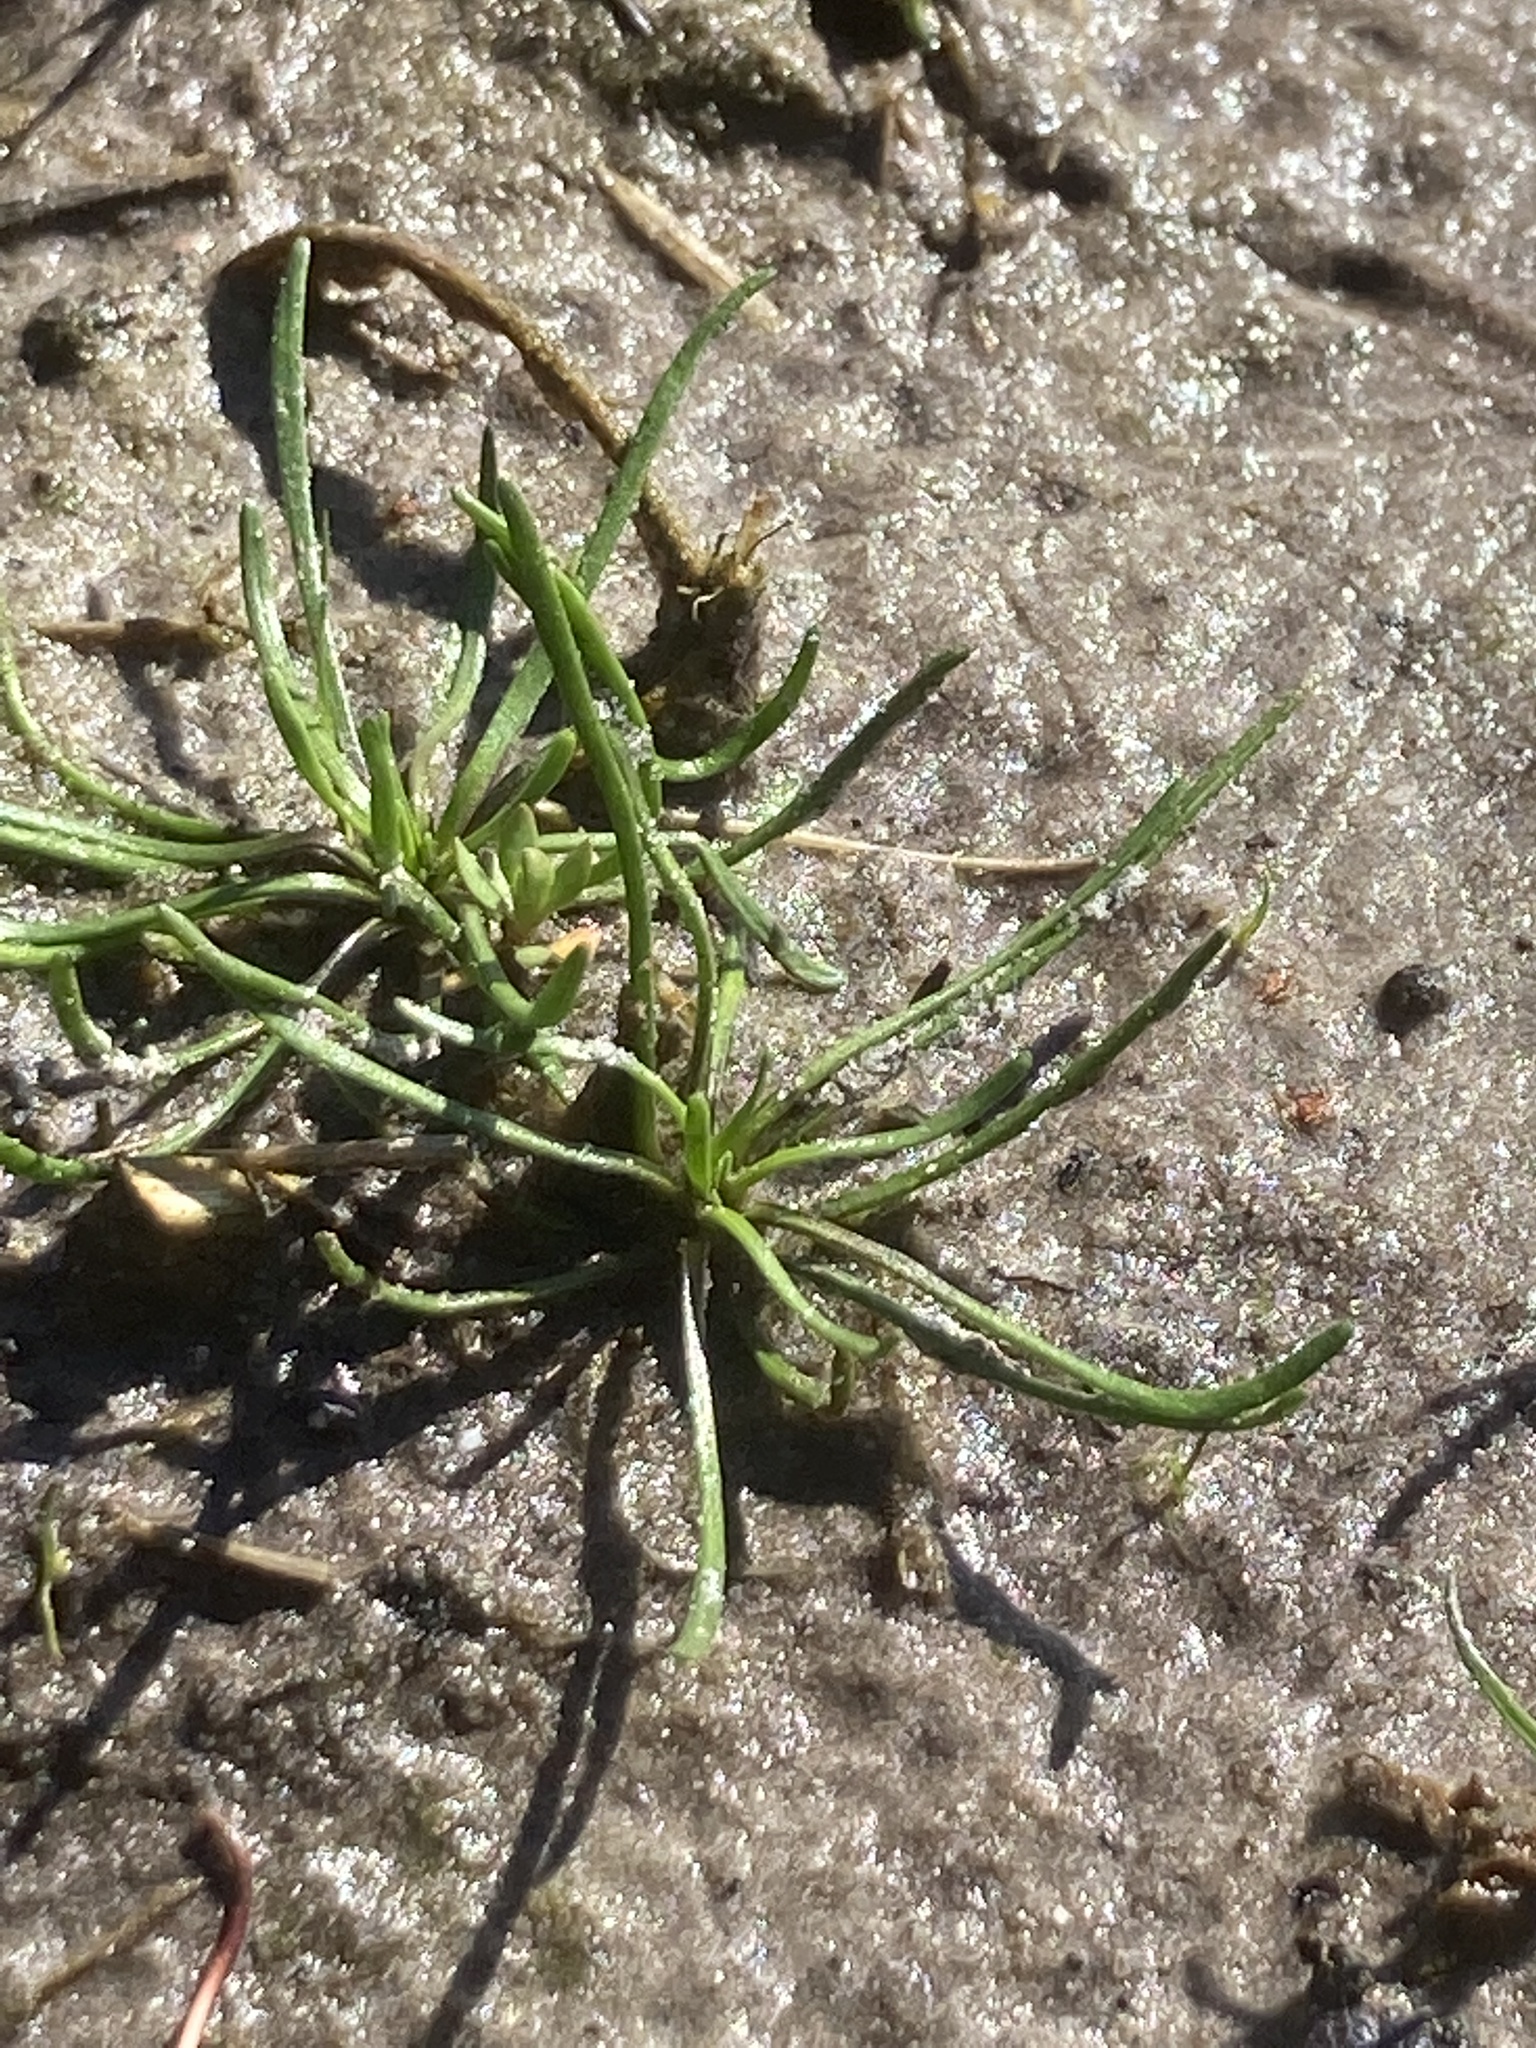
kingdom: Plantae
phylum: Tracheophyta
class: Magnoliopsida
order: Ranunculales
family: Ranunculaceae
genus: Myosurus
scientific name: Myosurus minimus
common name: Mousetail
